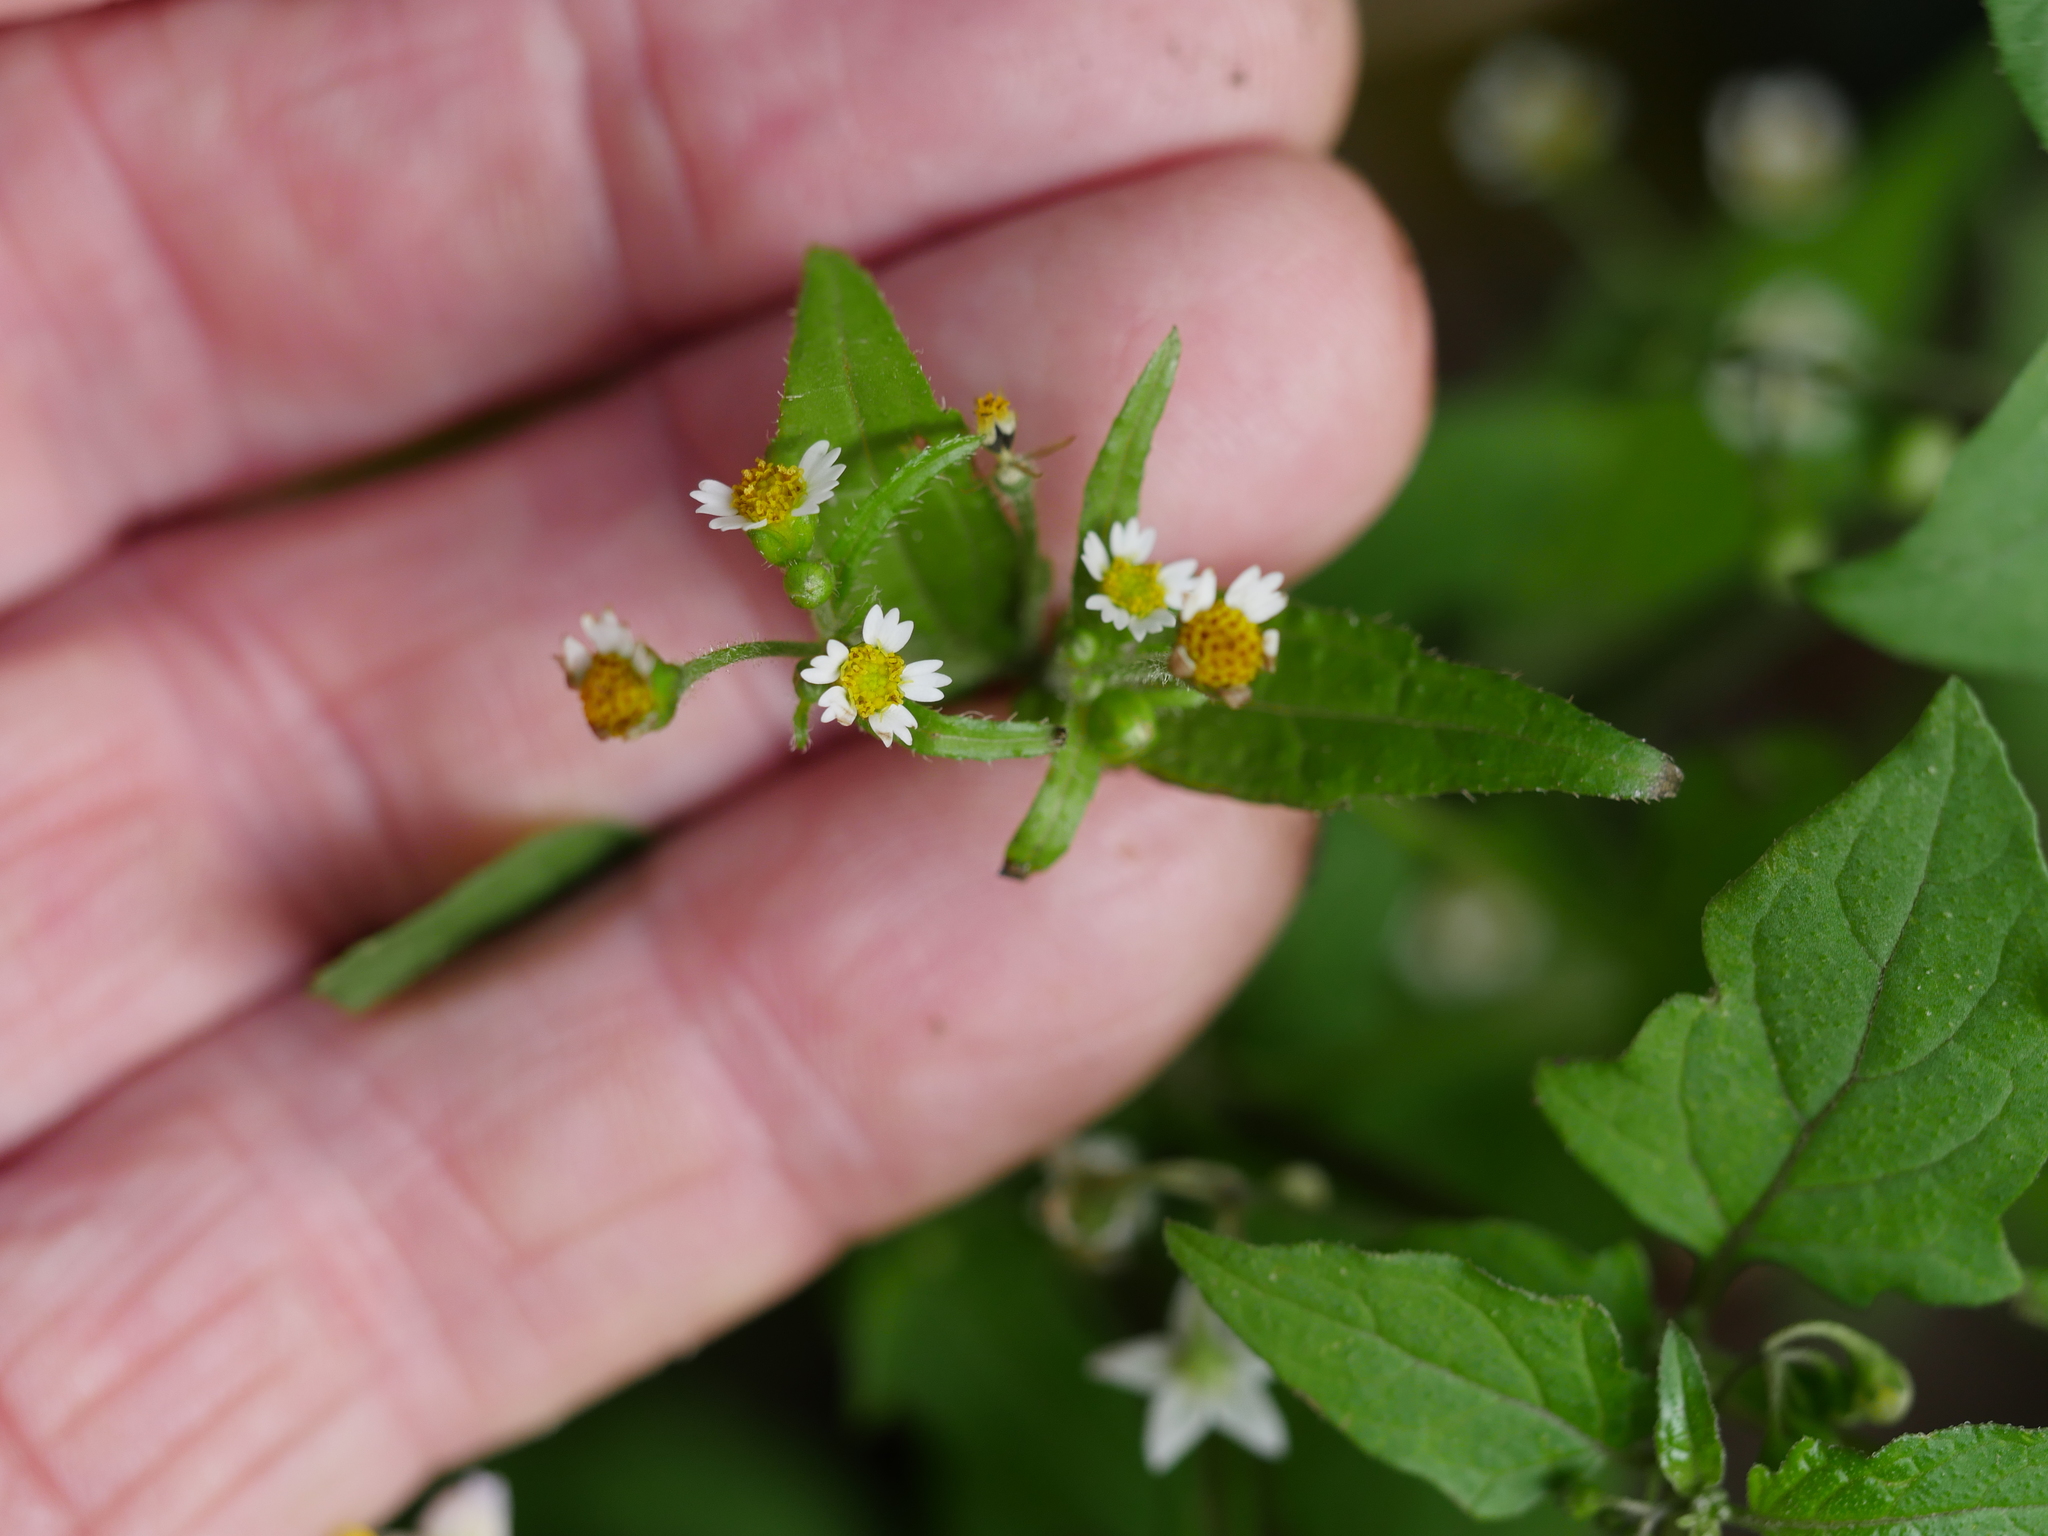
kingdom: Plantae
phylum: Tracheophyta
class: Magnoliopsida
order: Asterales
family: Asteraceae
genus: Galinsoga
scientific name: Galinsoga quadriradiata
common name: Shaggy soldier
